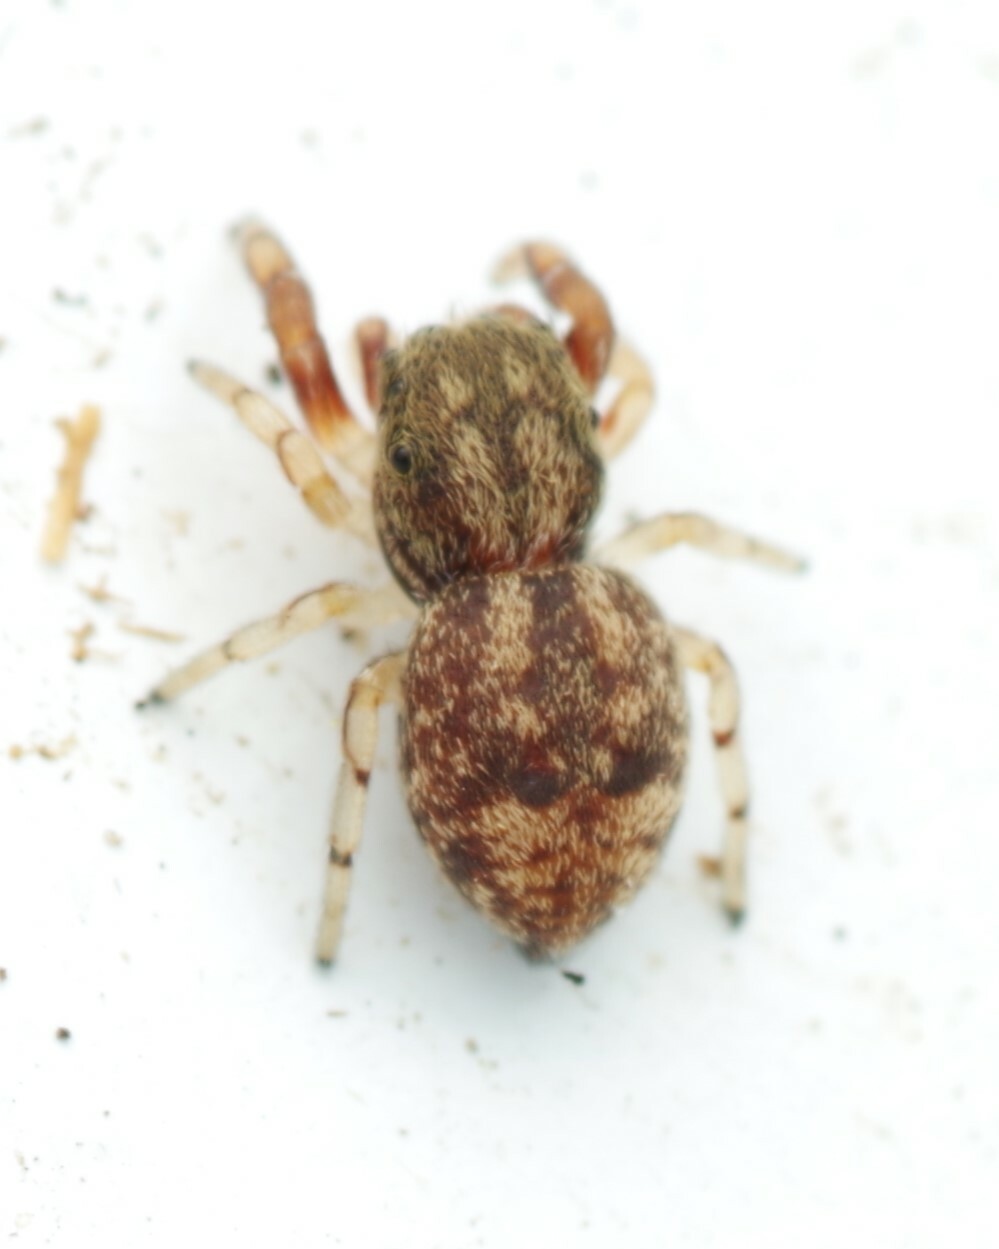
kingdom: Animalia
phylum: Arthropoda
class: Arachnida
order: Araneae
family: Salticidae
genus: Ballus
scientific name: Ballus chalybeius
